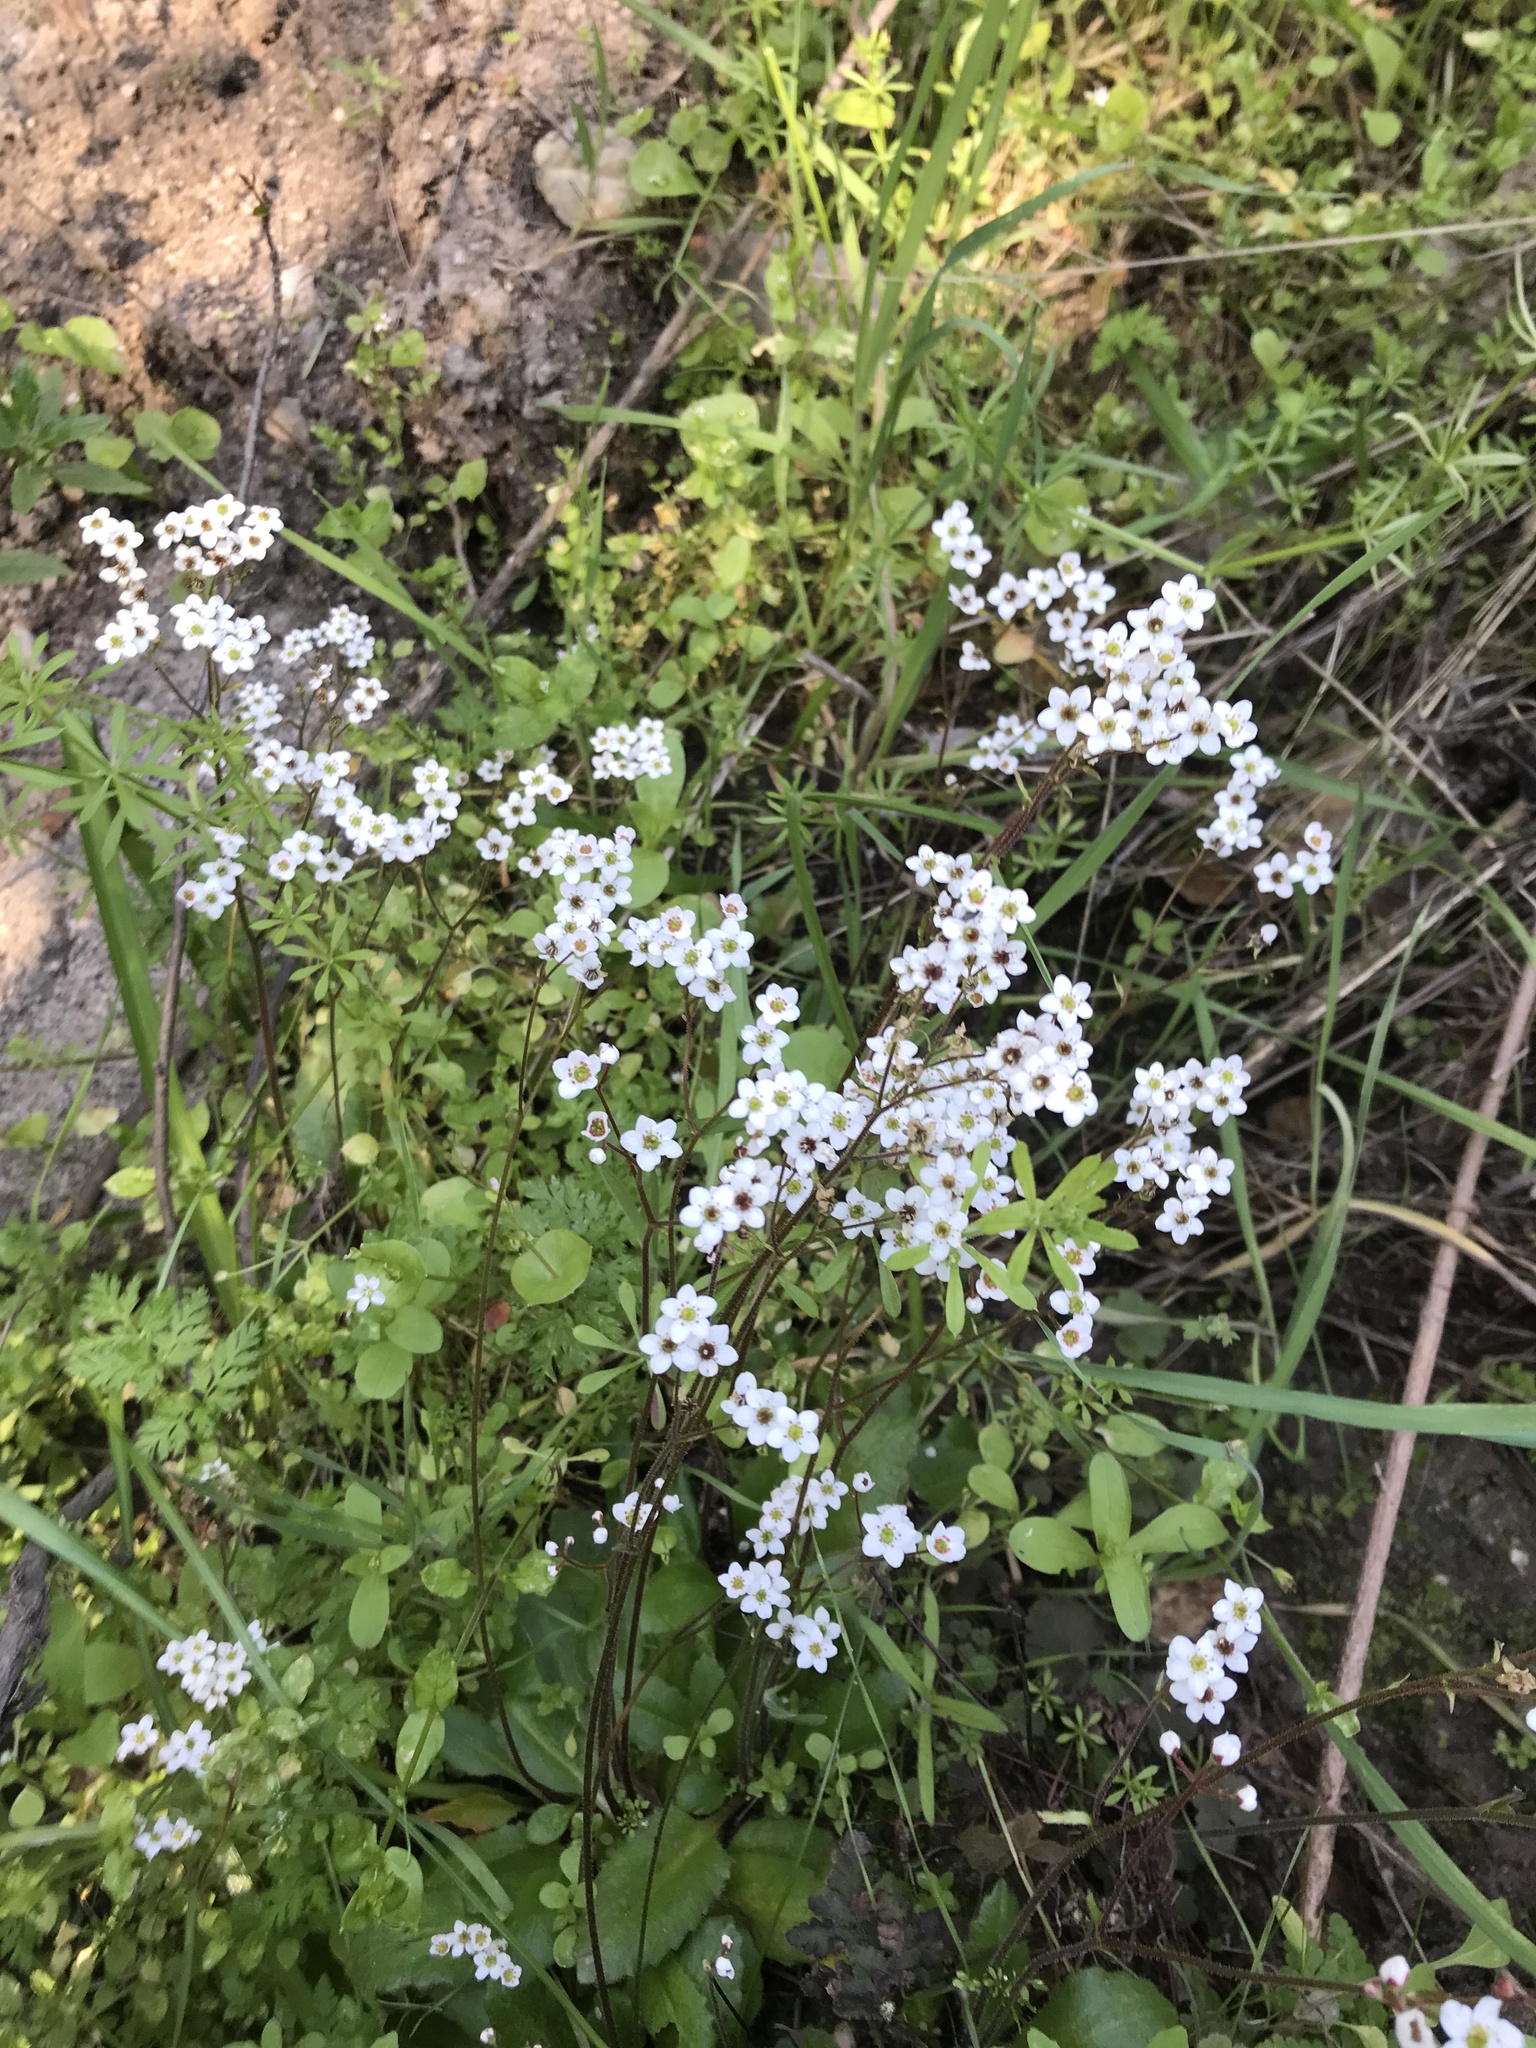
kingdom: Plantae
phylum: Tracheophyta
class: Magnoliopsida
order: Saxifragales
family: Saxifragaceae
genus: Micranthes
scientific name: Micranthes californica
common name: California saxifrage
